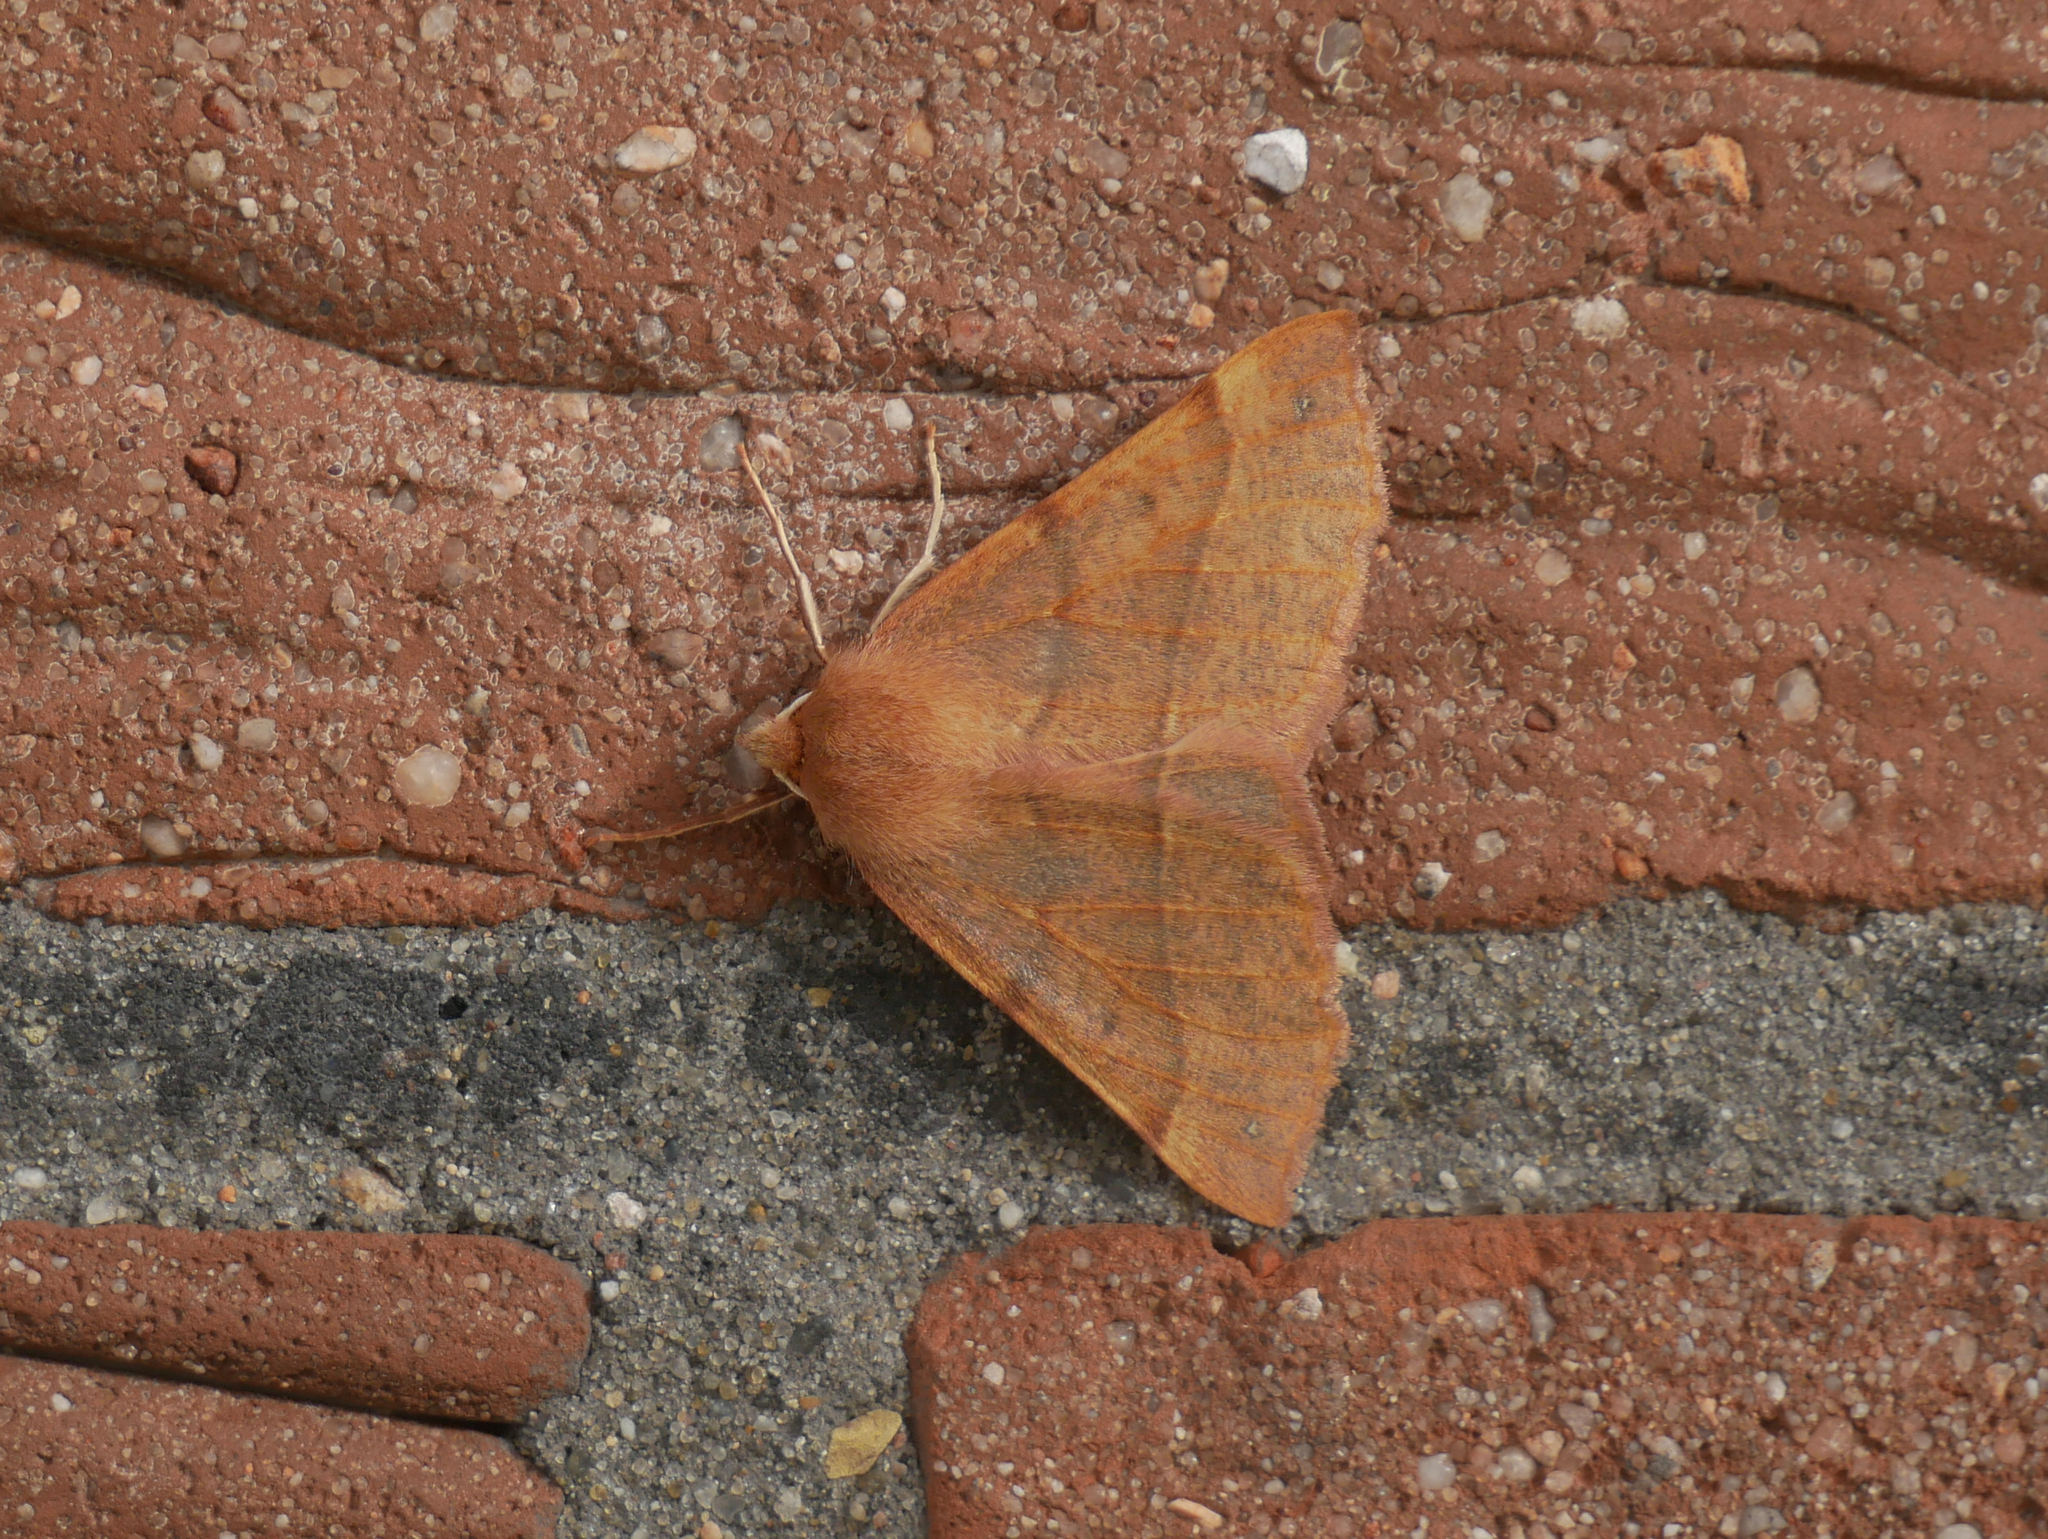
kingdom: Animalia
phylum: Arthropoda
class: Insecta
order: Lepidoptera
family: Geometridae
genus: Colotois
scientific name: Colotois pennaria
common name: Feathered thorn
